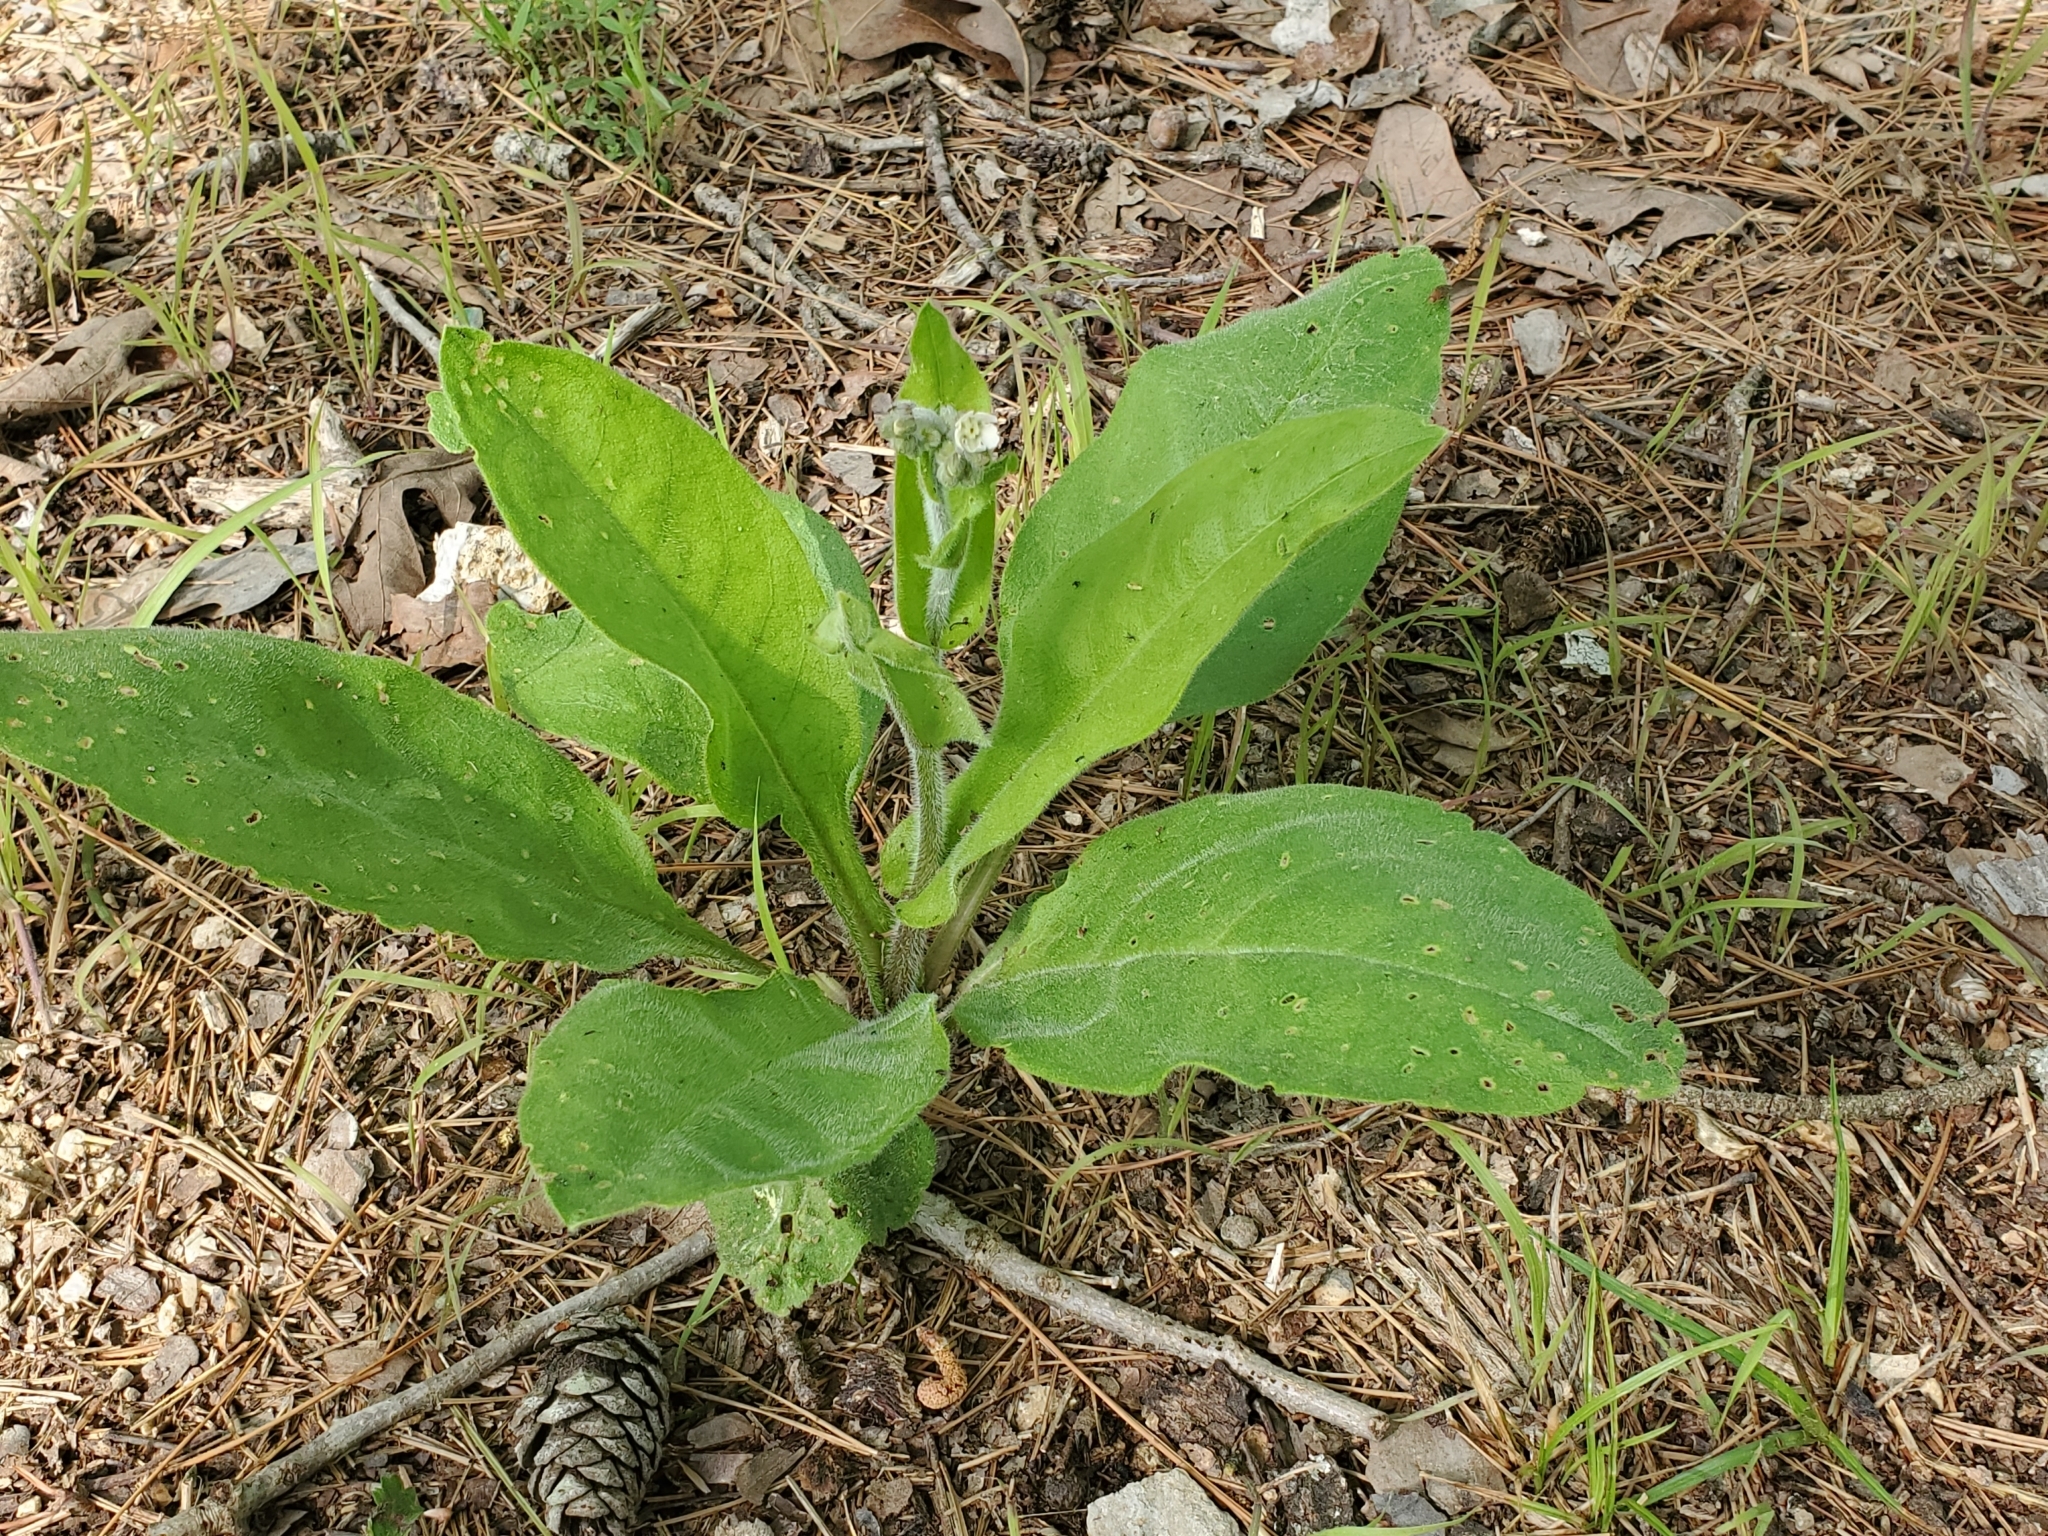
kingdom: Plantae
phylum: Tracheophyta
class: Magnoliopsida
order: Boraginales
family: Boraginaceae
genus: Andersonglossum
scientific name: Andersonglossum virginianum
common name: Wild comfrey
